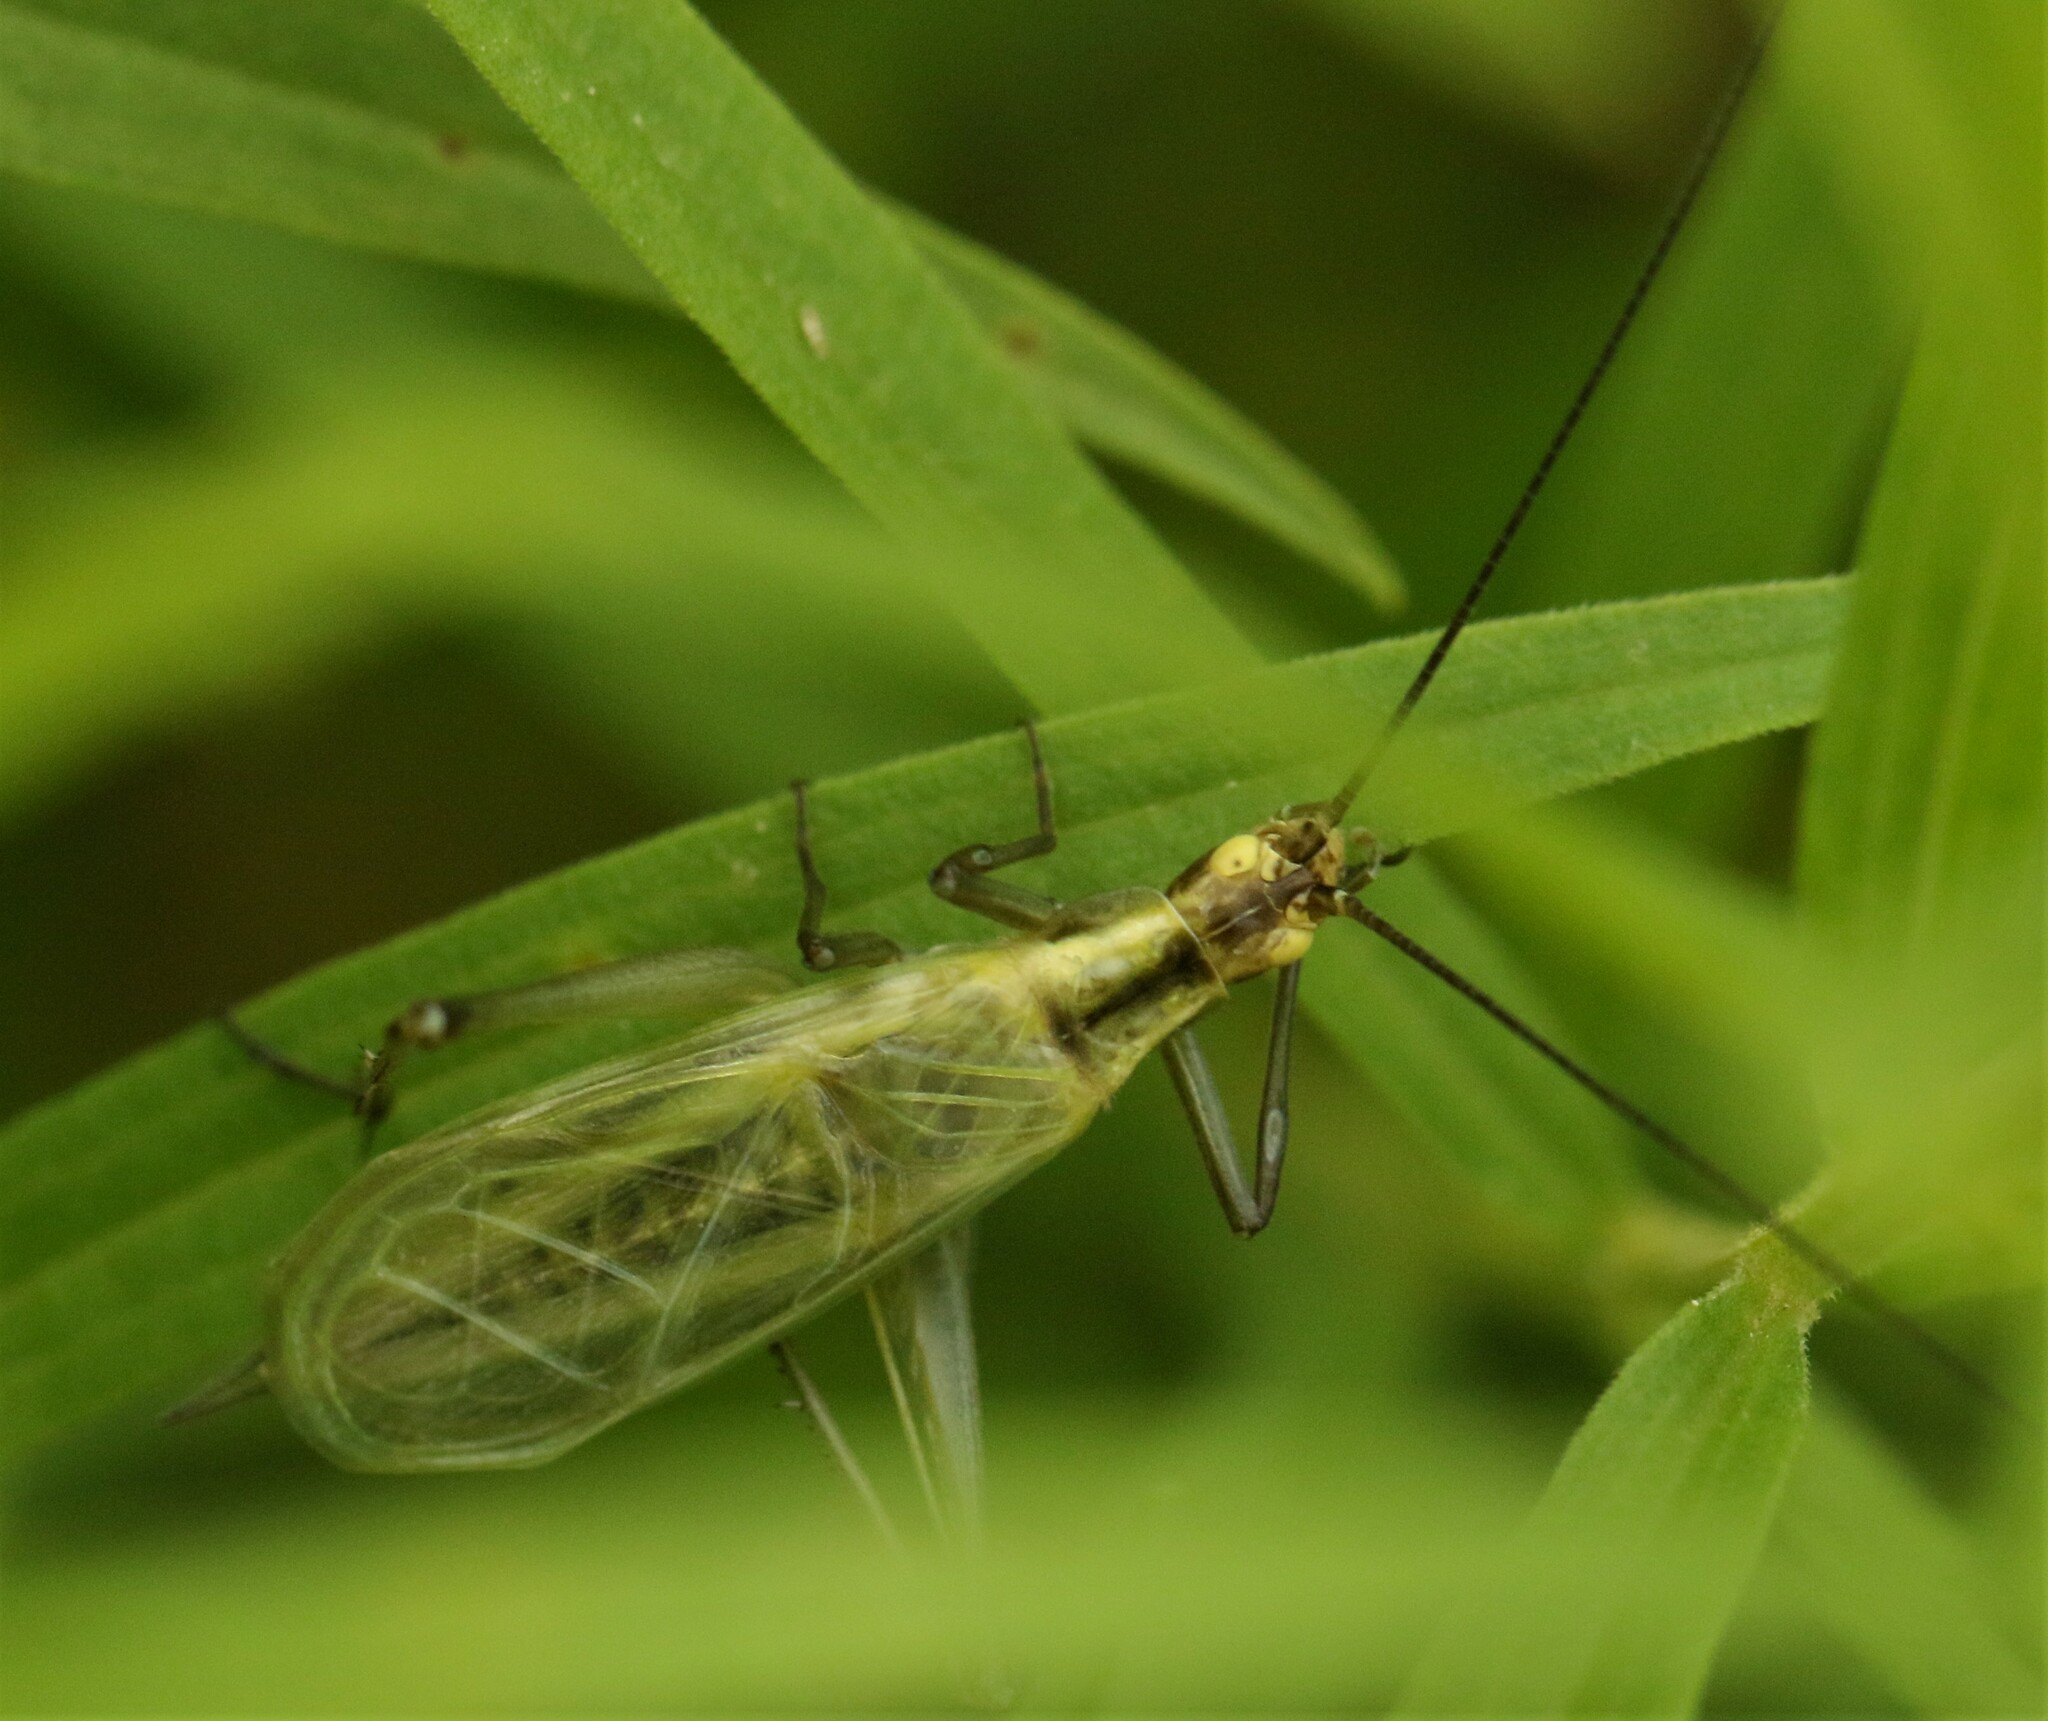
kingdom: Animalia
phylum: Arthropoda
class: Insecta
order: Orthoptera
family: Gryllidae
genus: Oecanthus
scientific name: Oecanthus nigricornis
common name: Black-horned tree cricket
